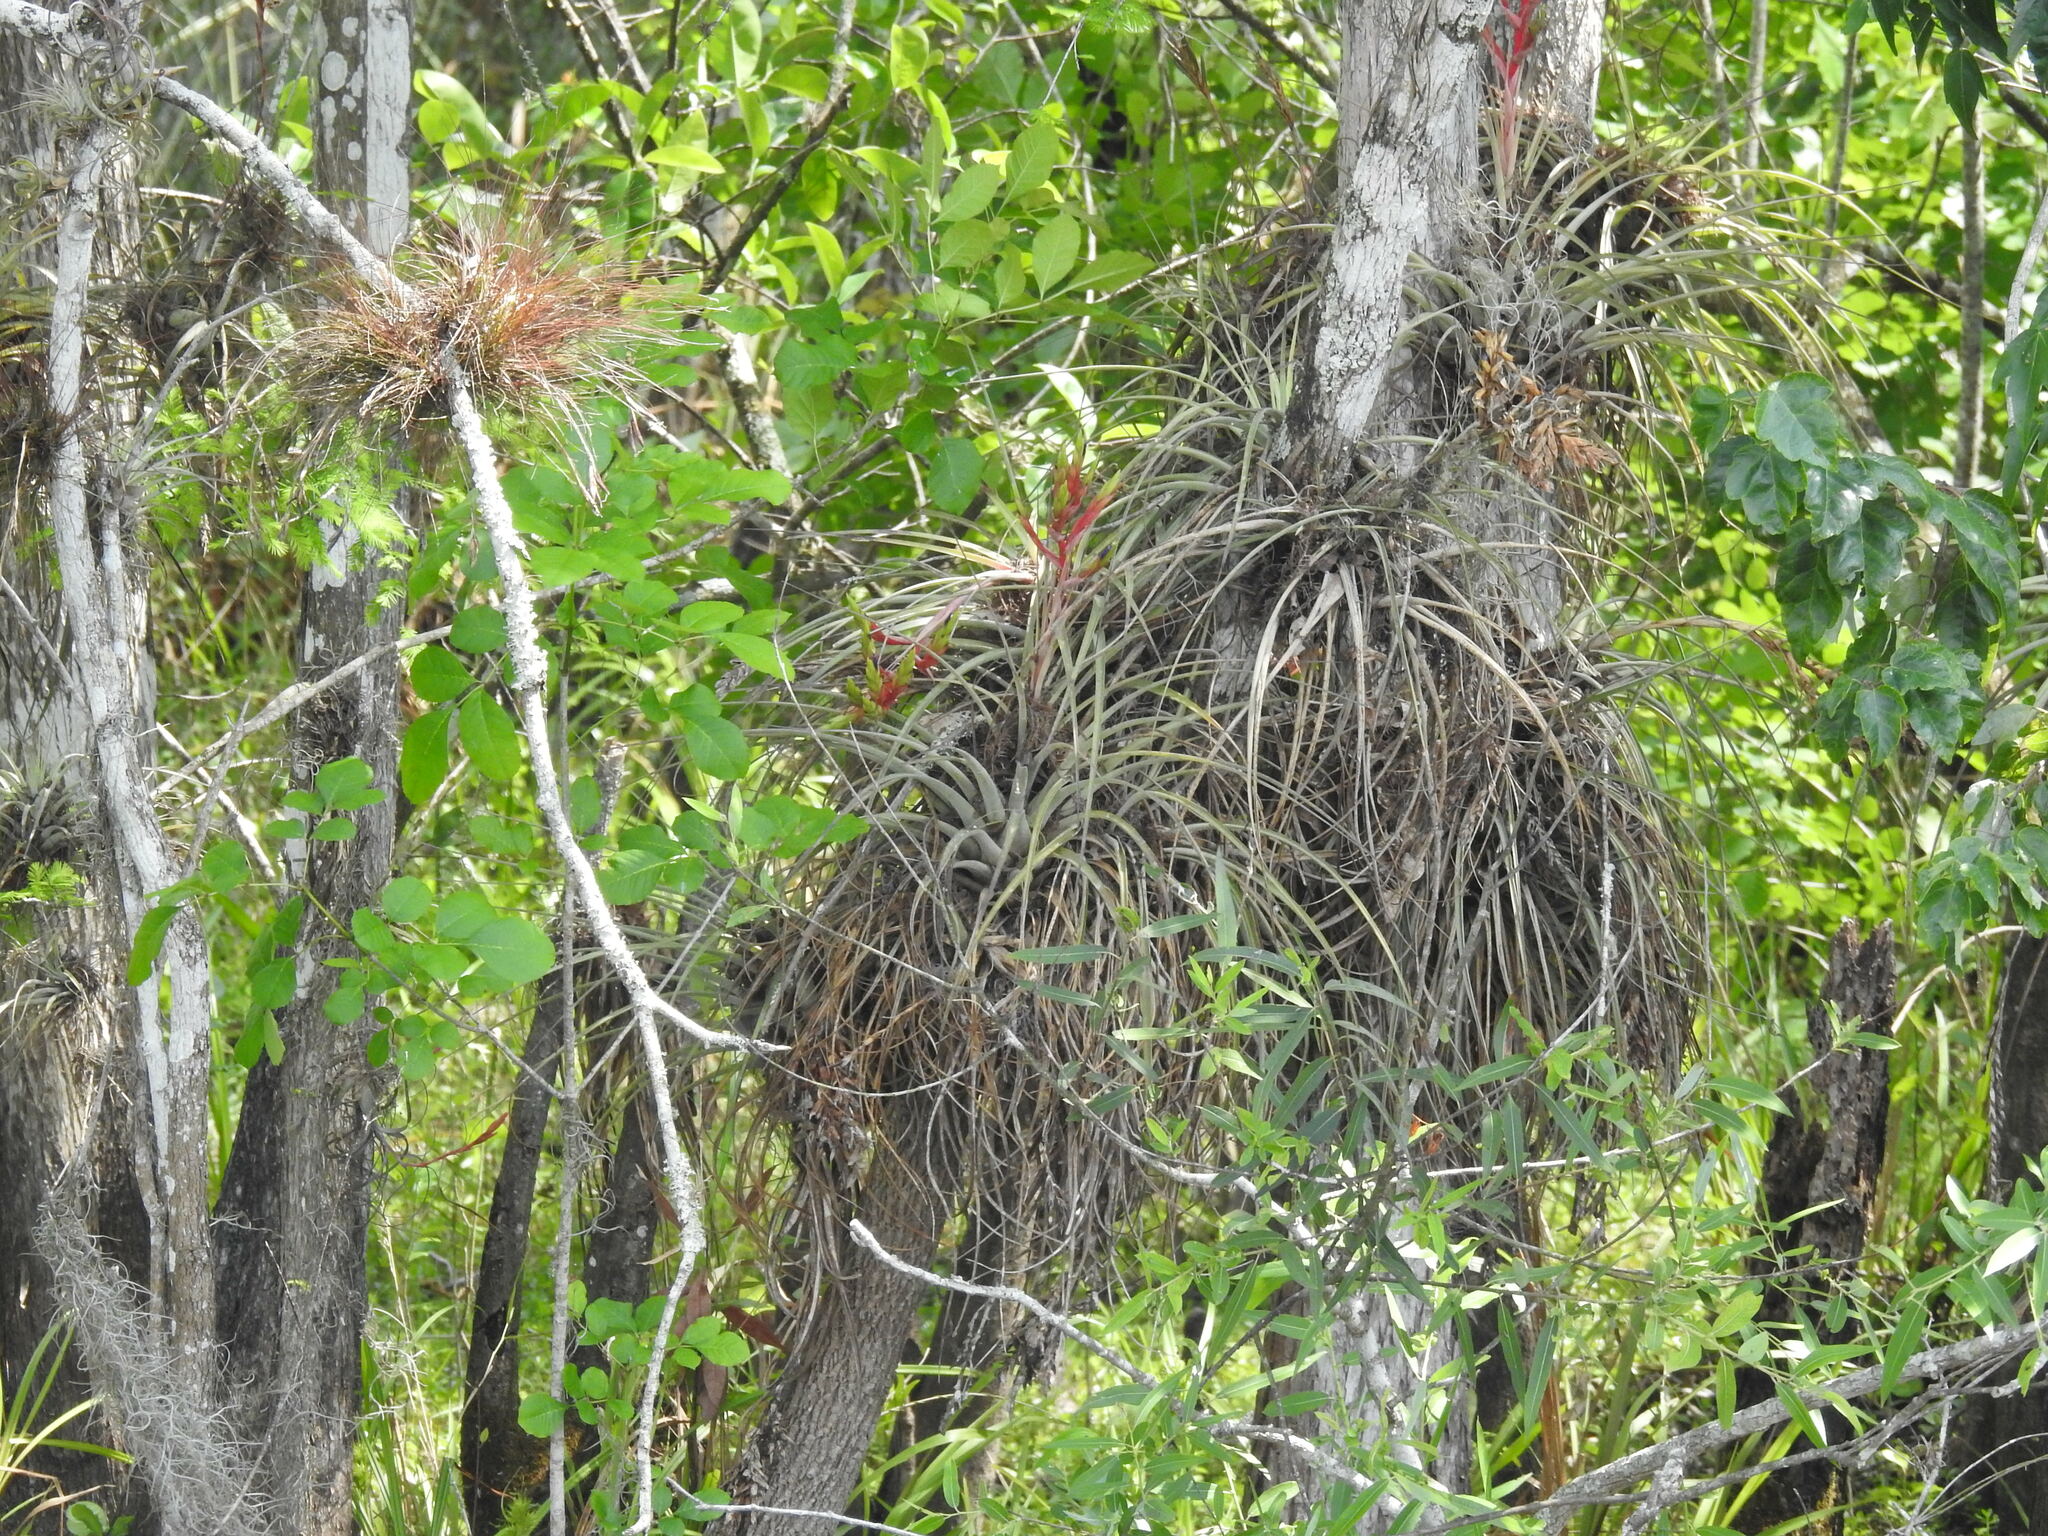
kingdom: Plantae
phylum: Tracheophyta
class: Liliopsida
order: Poales
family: Bromeliaceae
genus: Tillandsia
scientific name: Tillandsia fasciculata
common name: Giant airplant
